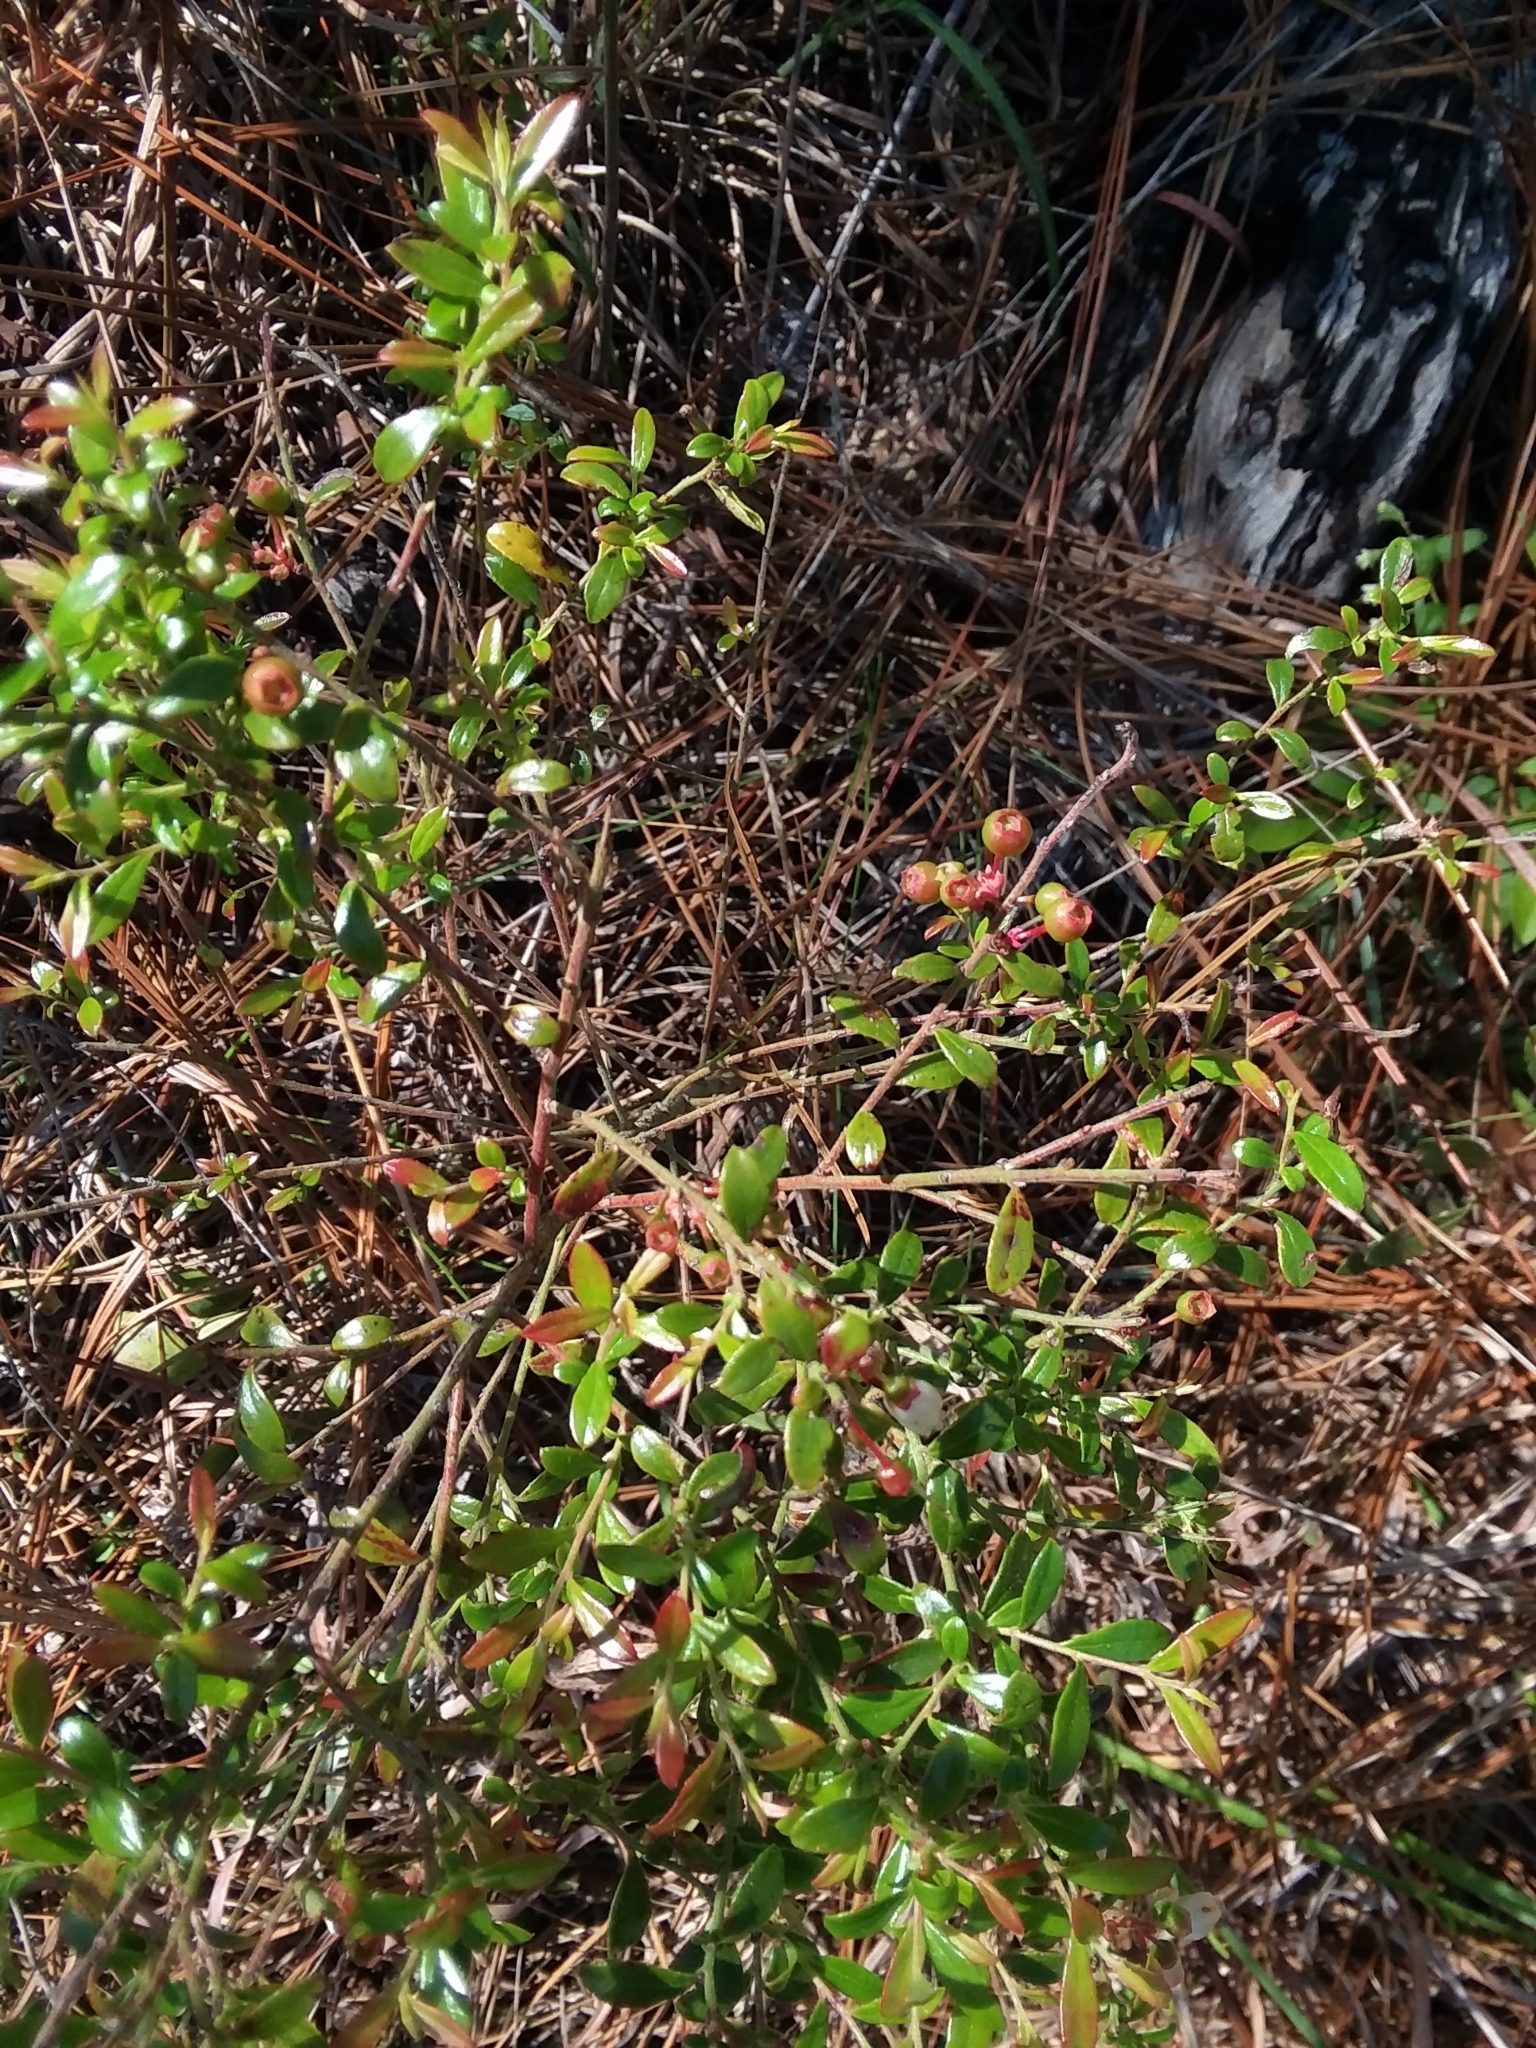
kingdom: Plantae
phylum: Tracheophyta
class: Magnoliopsida
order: Ericales
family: Ericaceae
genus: Vaccinium
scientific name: Vaccinium myrsinites
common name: Evergreen blueberry
